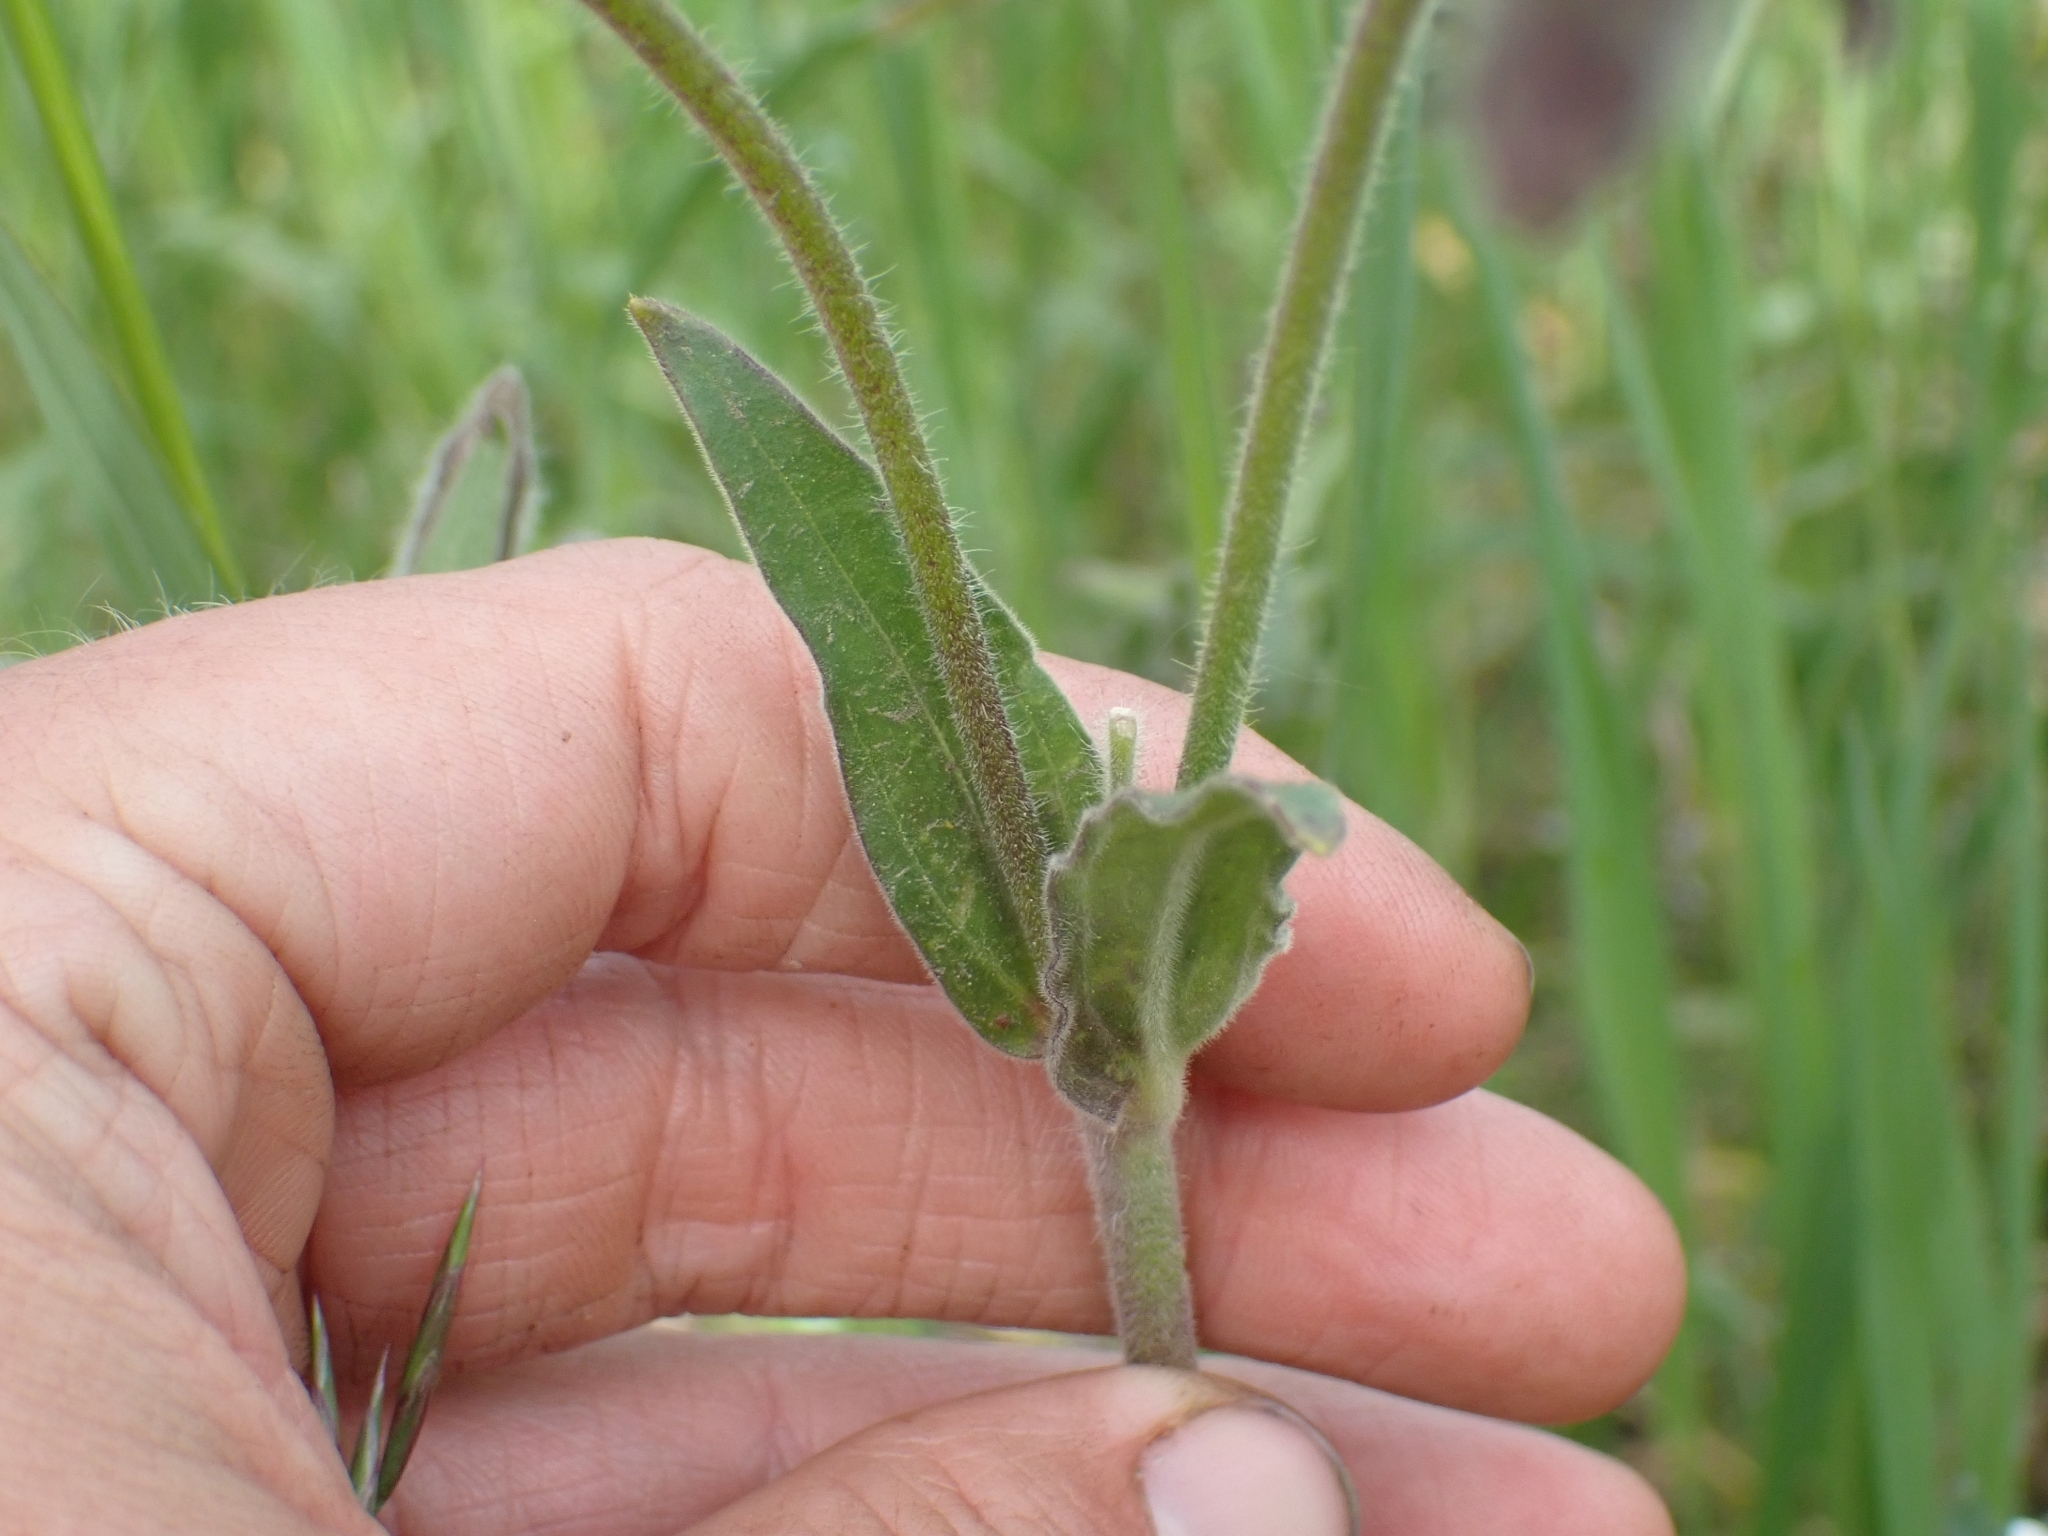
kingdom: Plantae
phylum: Tracheophyta
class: Magnoliopsida
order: Caryophyllales
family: Caryophyllaceae
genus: Silene
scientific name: Silene latifolia
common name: White campion
